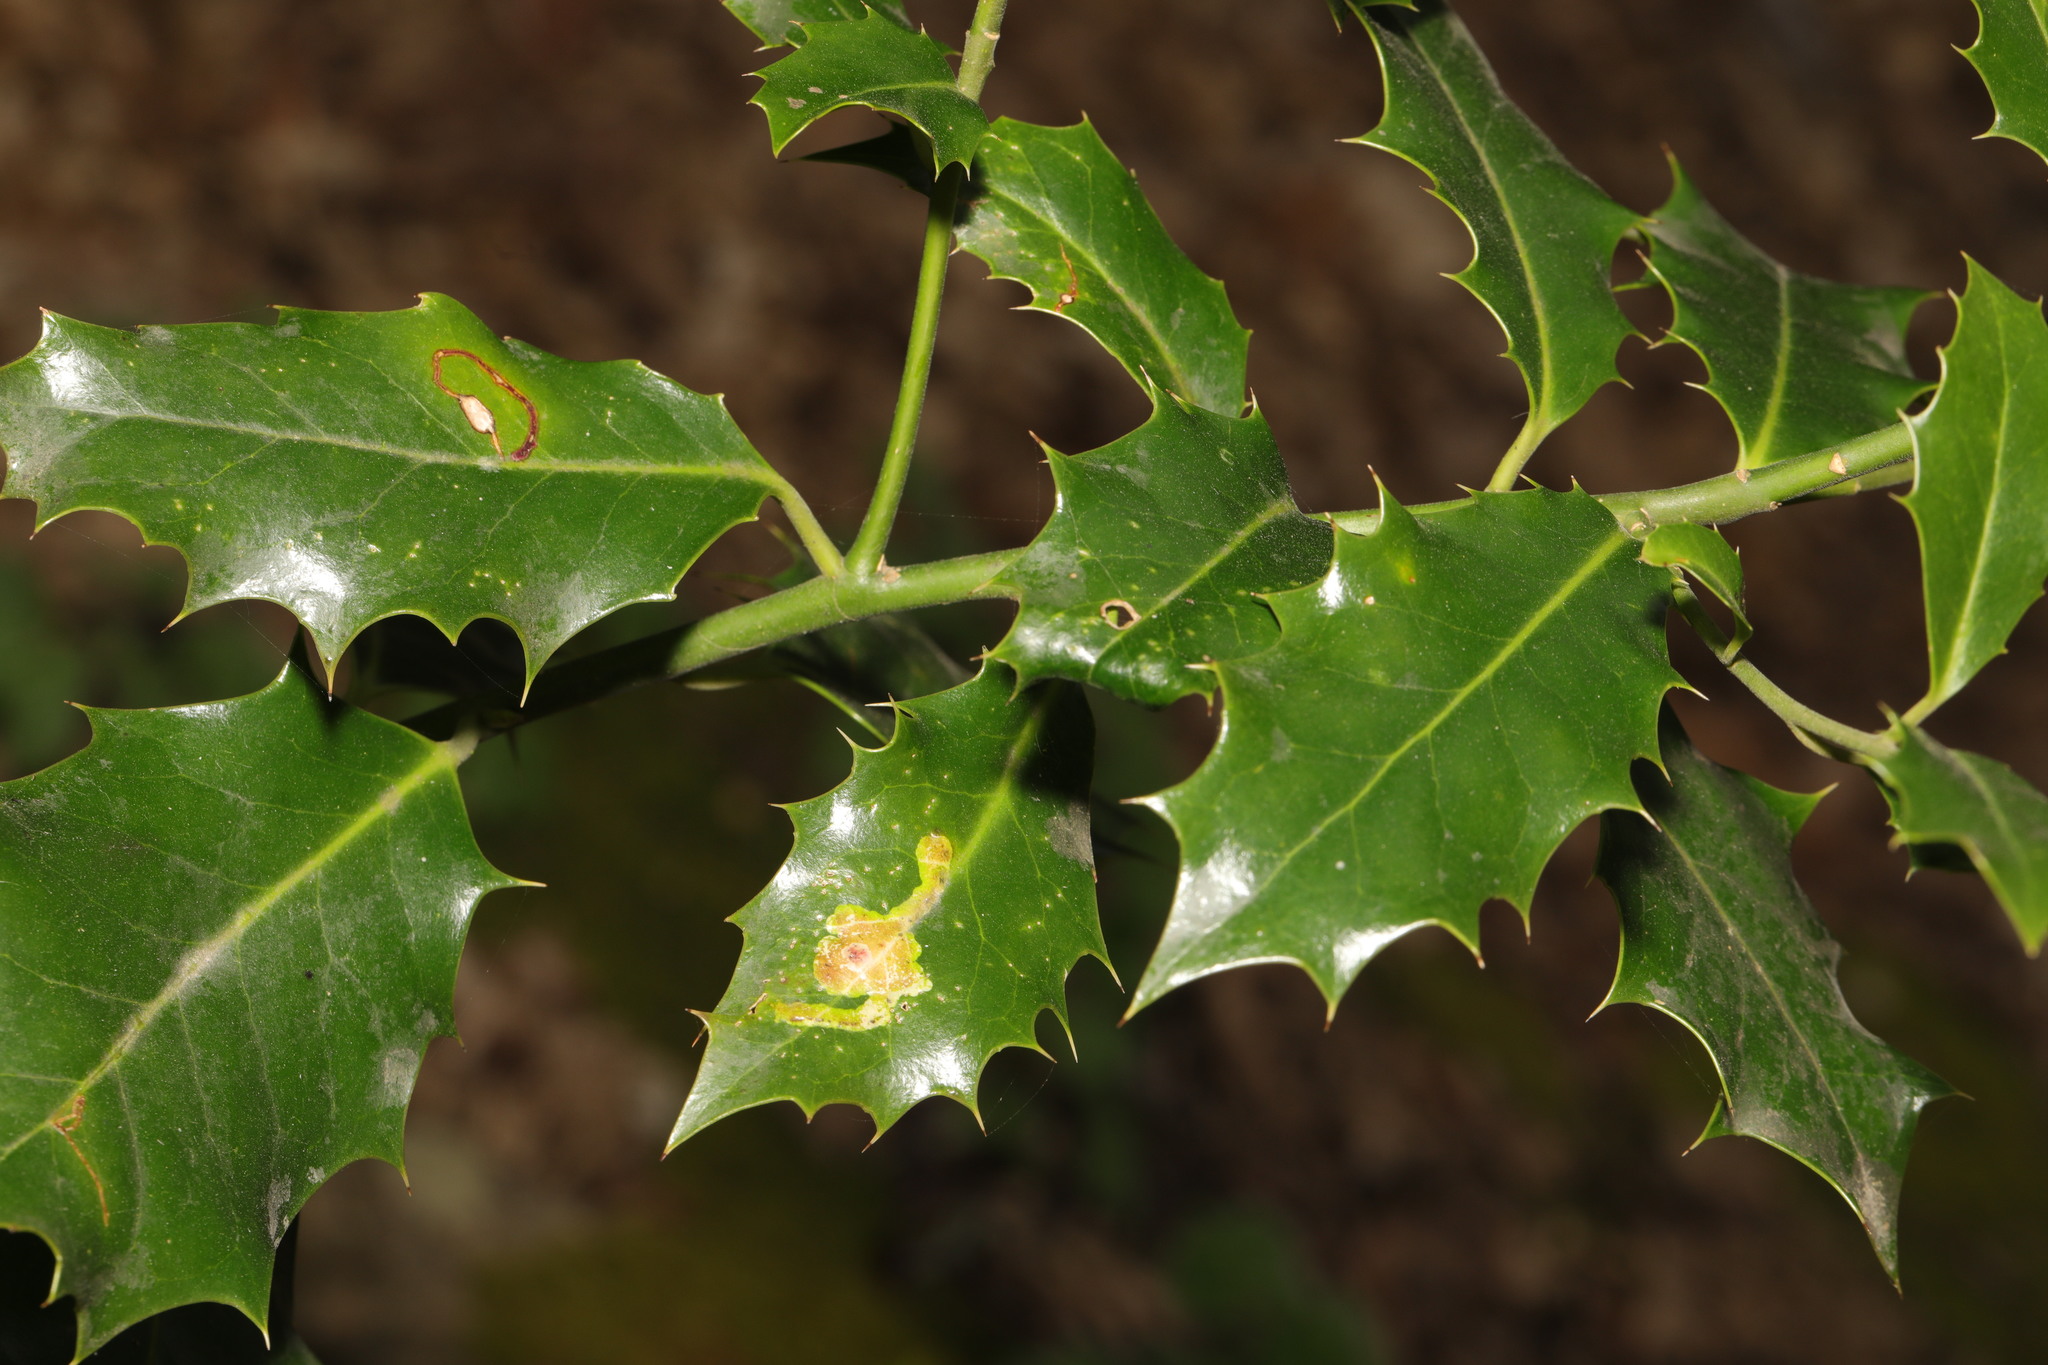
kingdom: Plantae
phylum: Tracheophyta
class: Magnoliopsida
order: Aquifoliales
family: Aquifoliaceae
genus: Ilex
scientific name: Ilex aquifolium
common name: English holly
